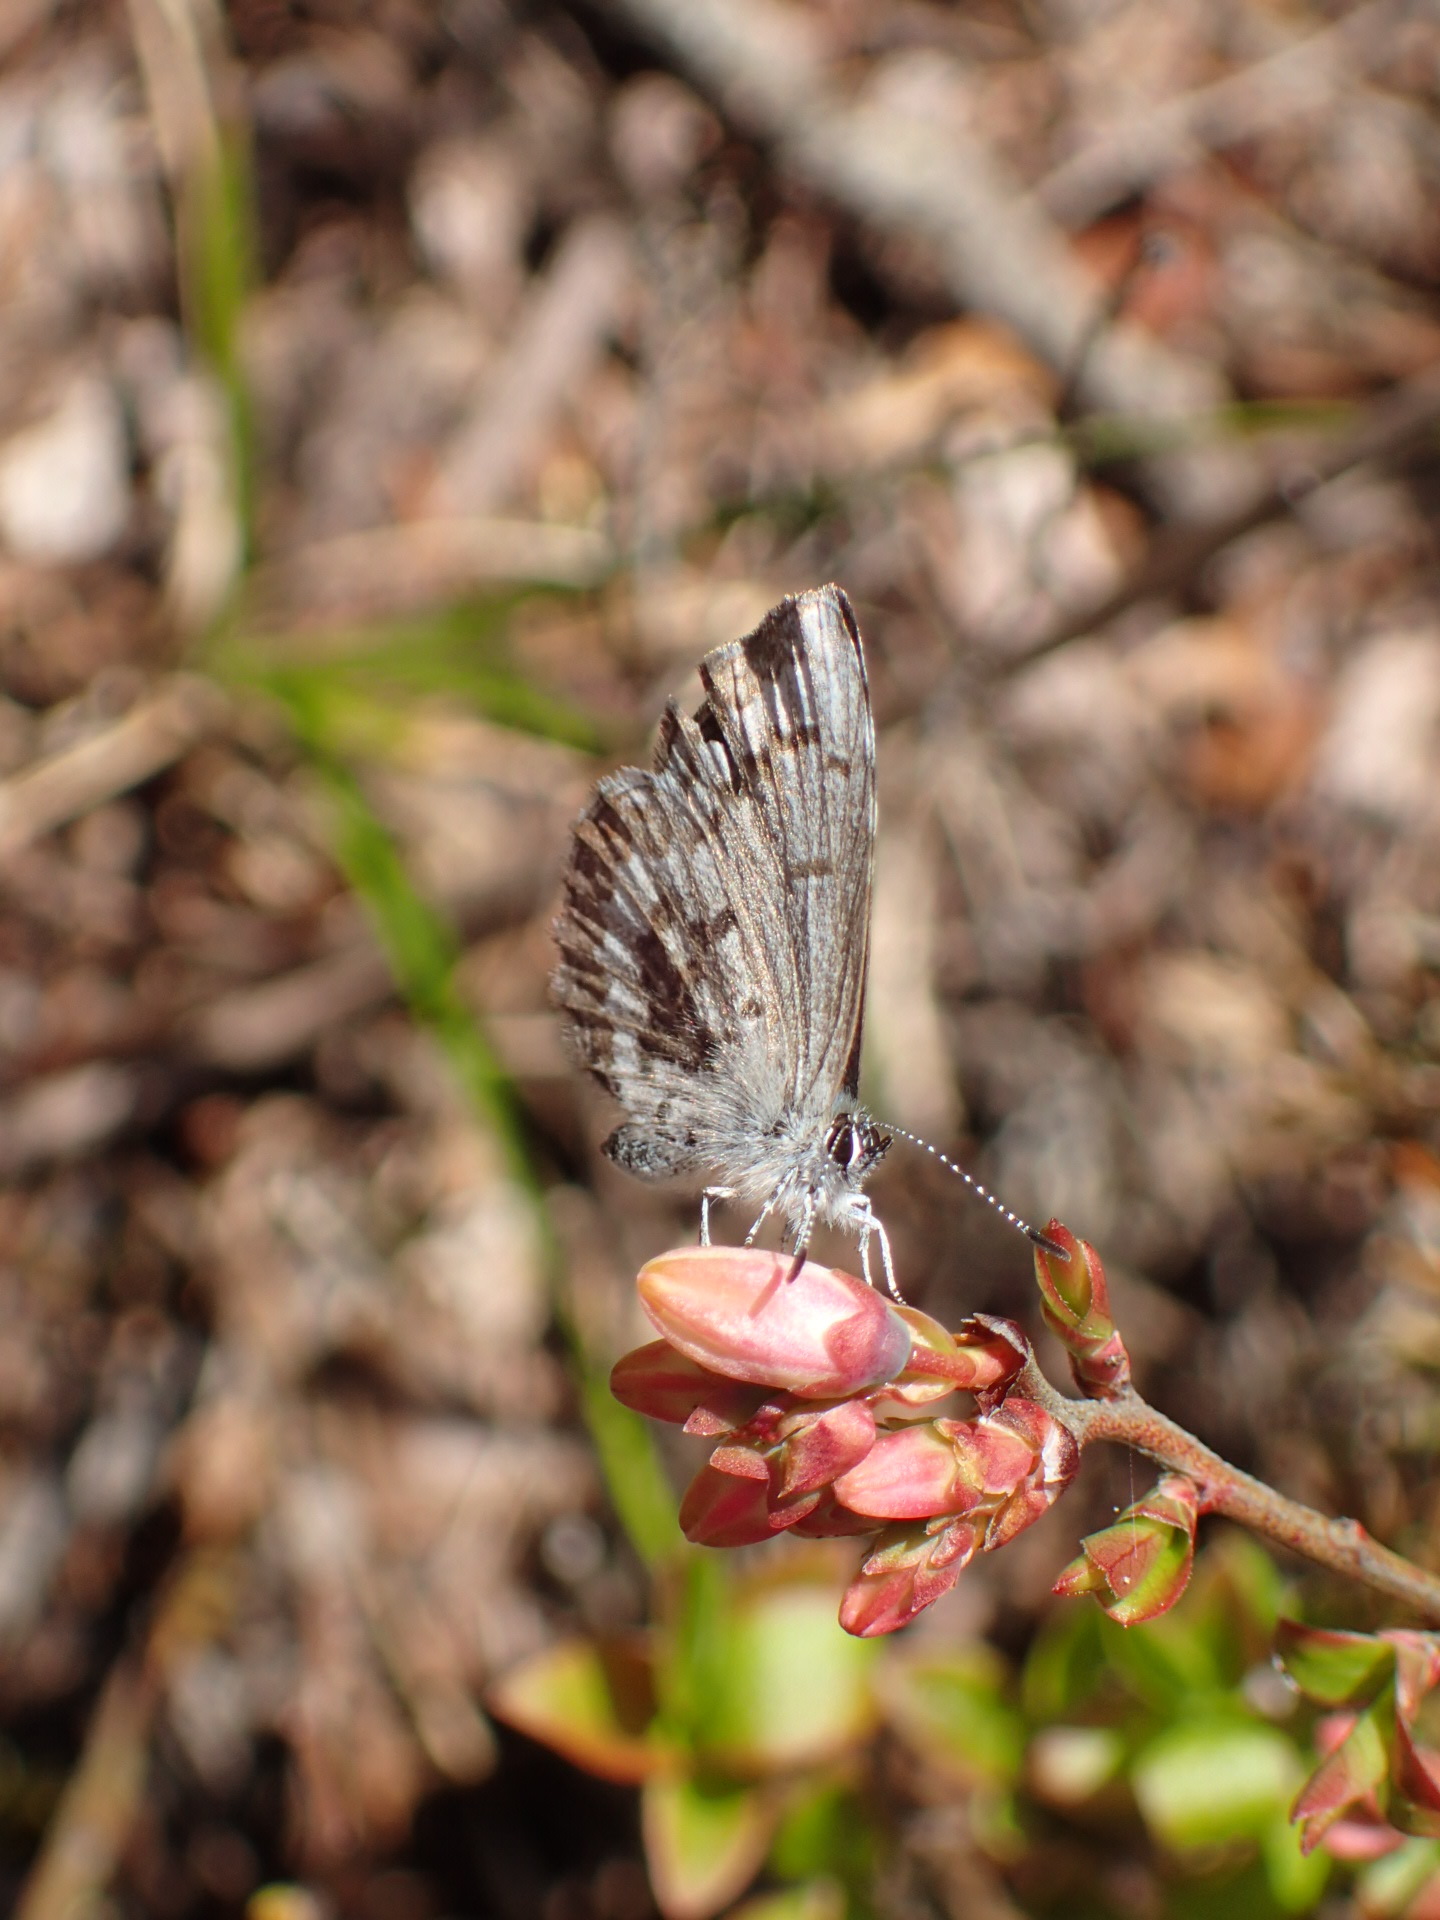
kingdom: Animalia
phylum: Arthropoda
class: Insecta
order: Lepidoptera
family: Lycaenidae
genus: Celastrina
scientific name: Celastrina lucia
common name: Lucia azure
